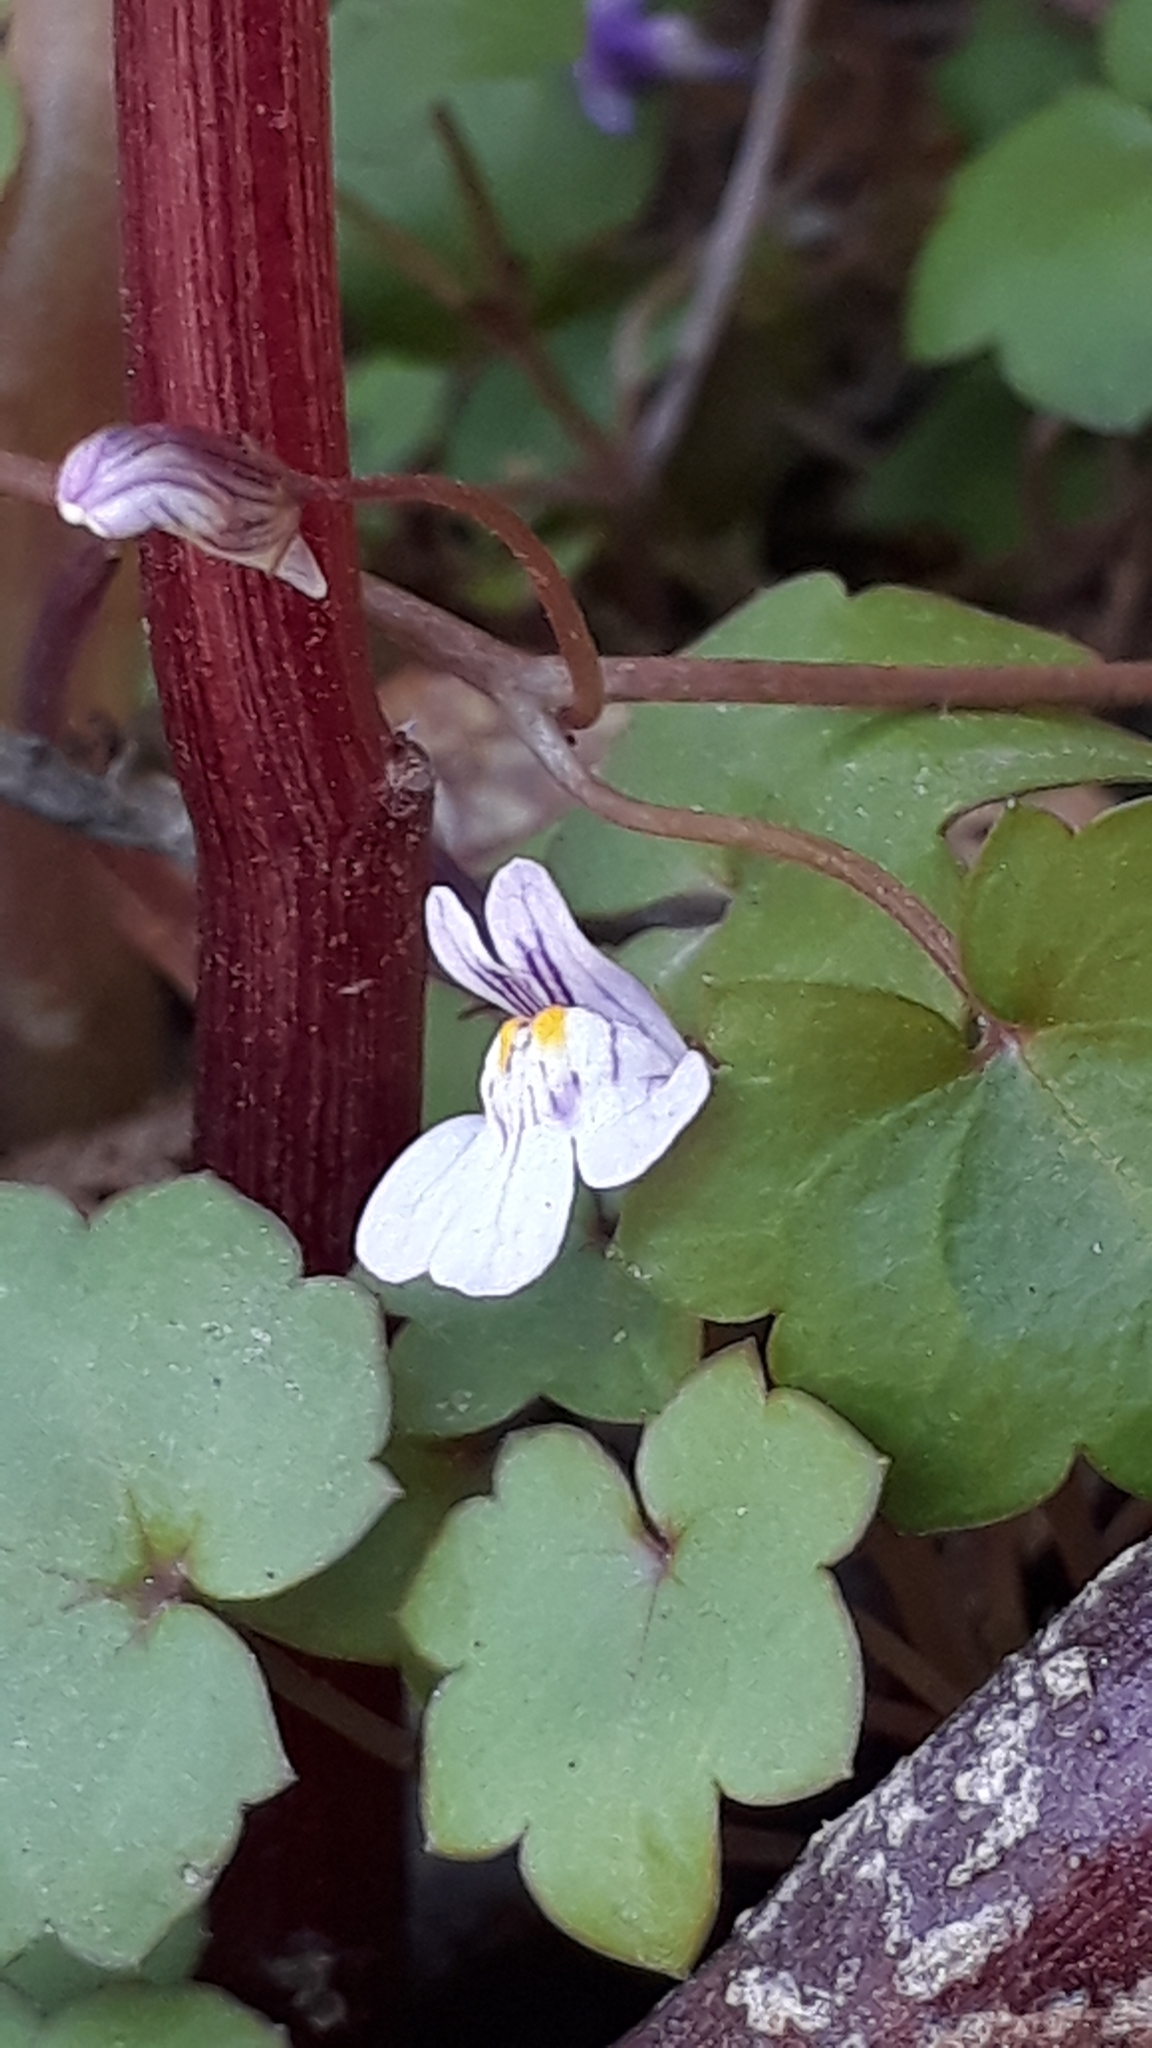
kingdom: Plantae
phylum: Tracheophyta
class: Magnoliopsida
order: Lamiales
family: Plantaginaceae
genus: Cymbalaria
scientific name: Cymbalaria muralis
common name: Ivy-leaved toadflax
